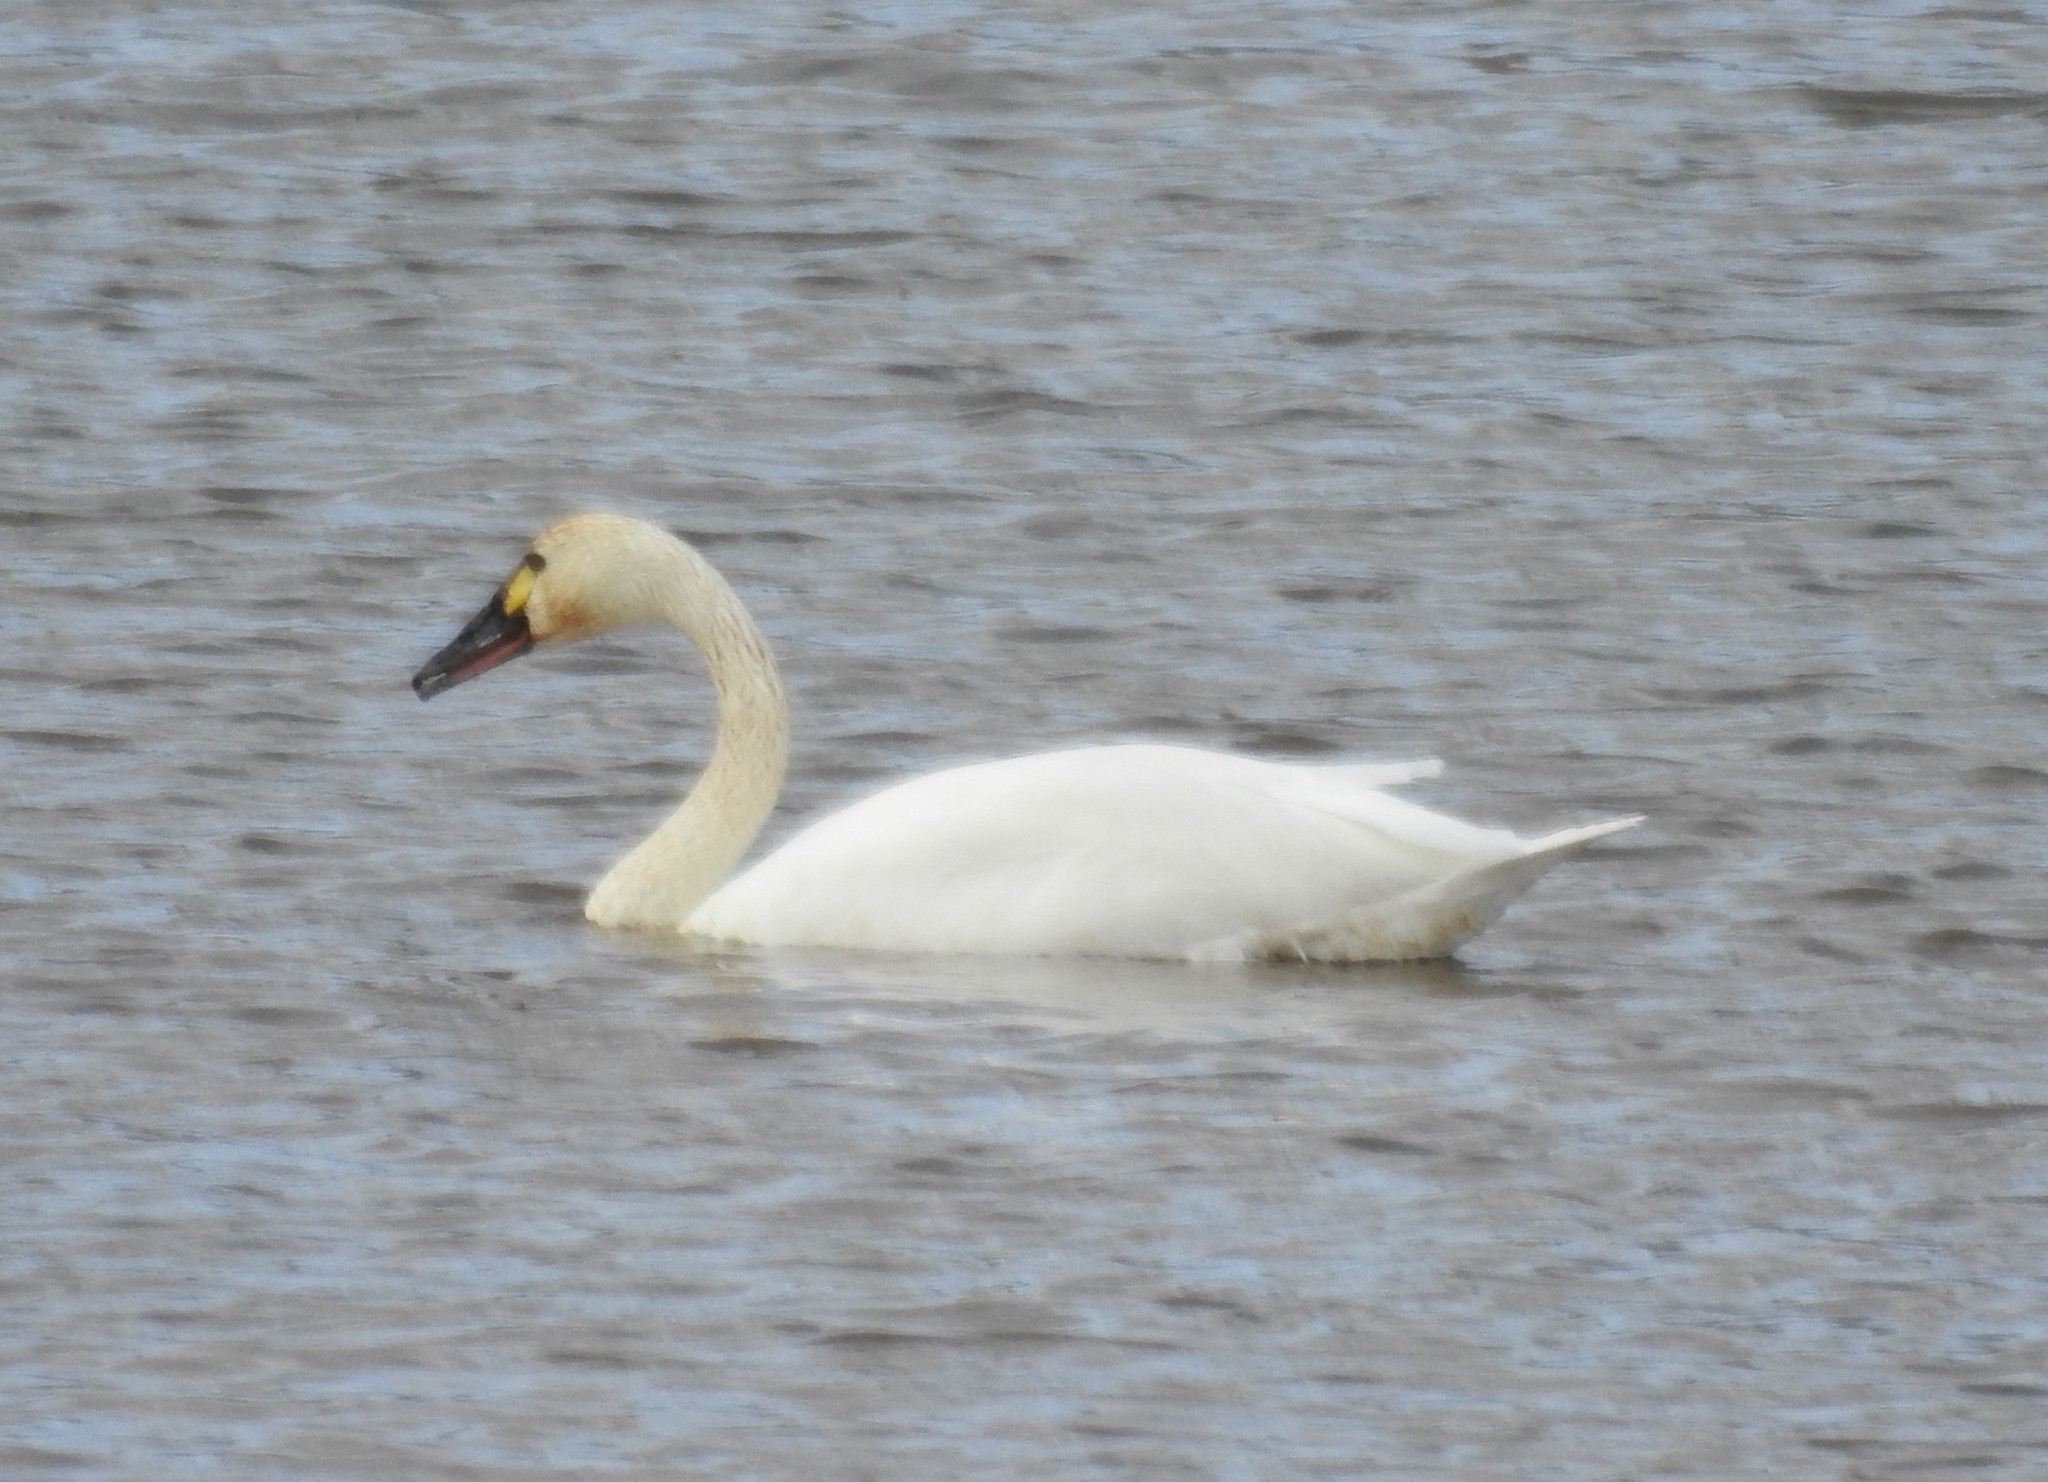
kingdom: Animalia
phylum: Chordata
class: Aves
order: Anseriformes
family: Anatidae
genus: Cygnus
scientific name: Cygnus columbianus
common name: Tundra swan
